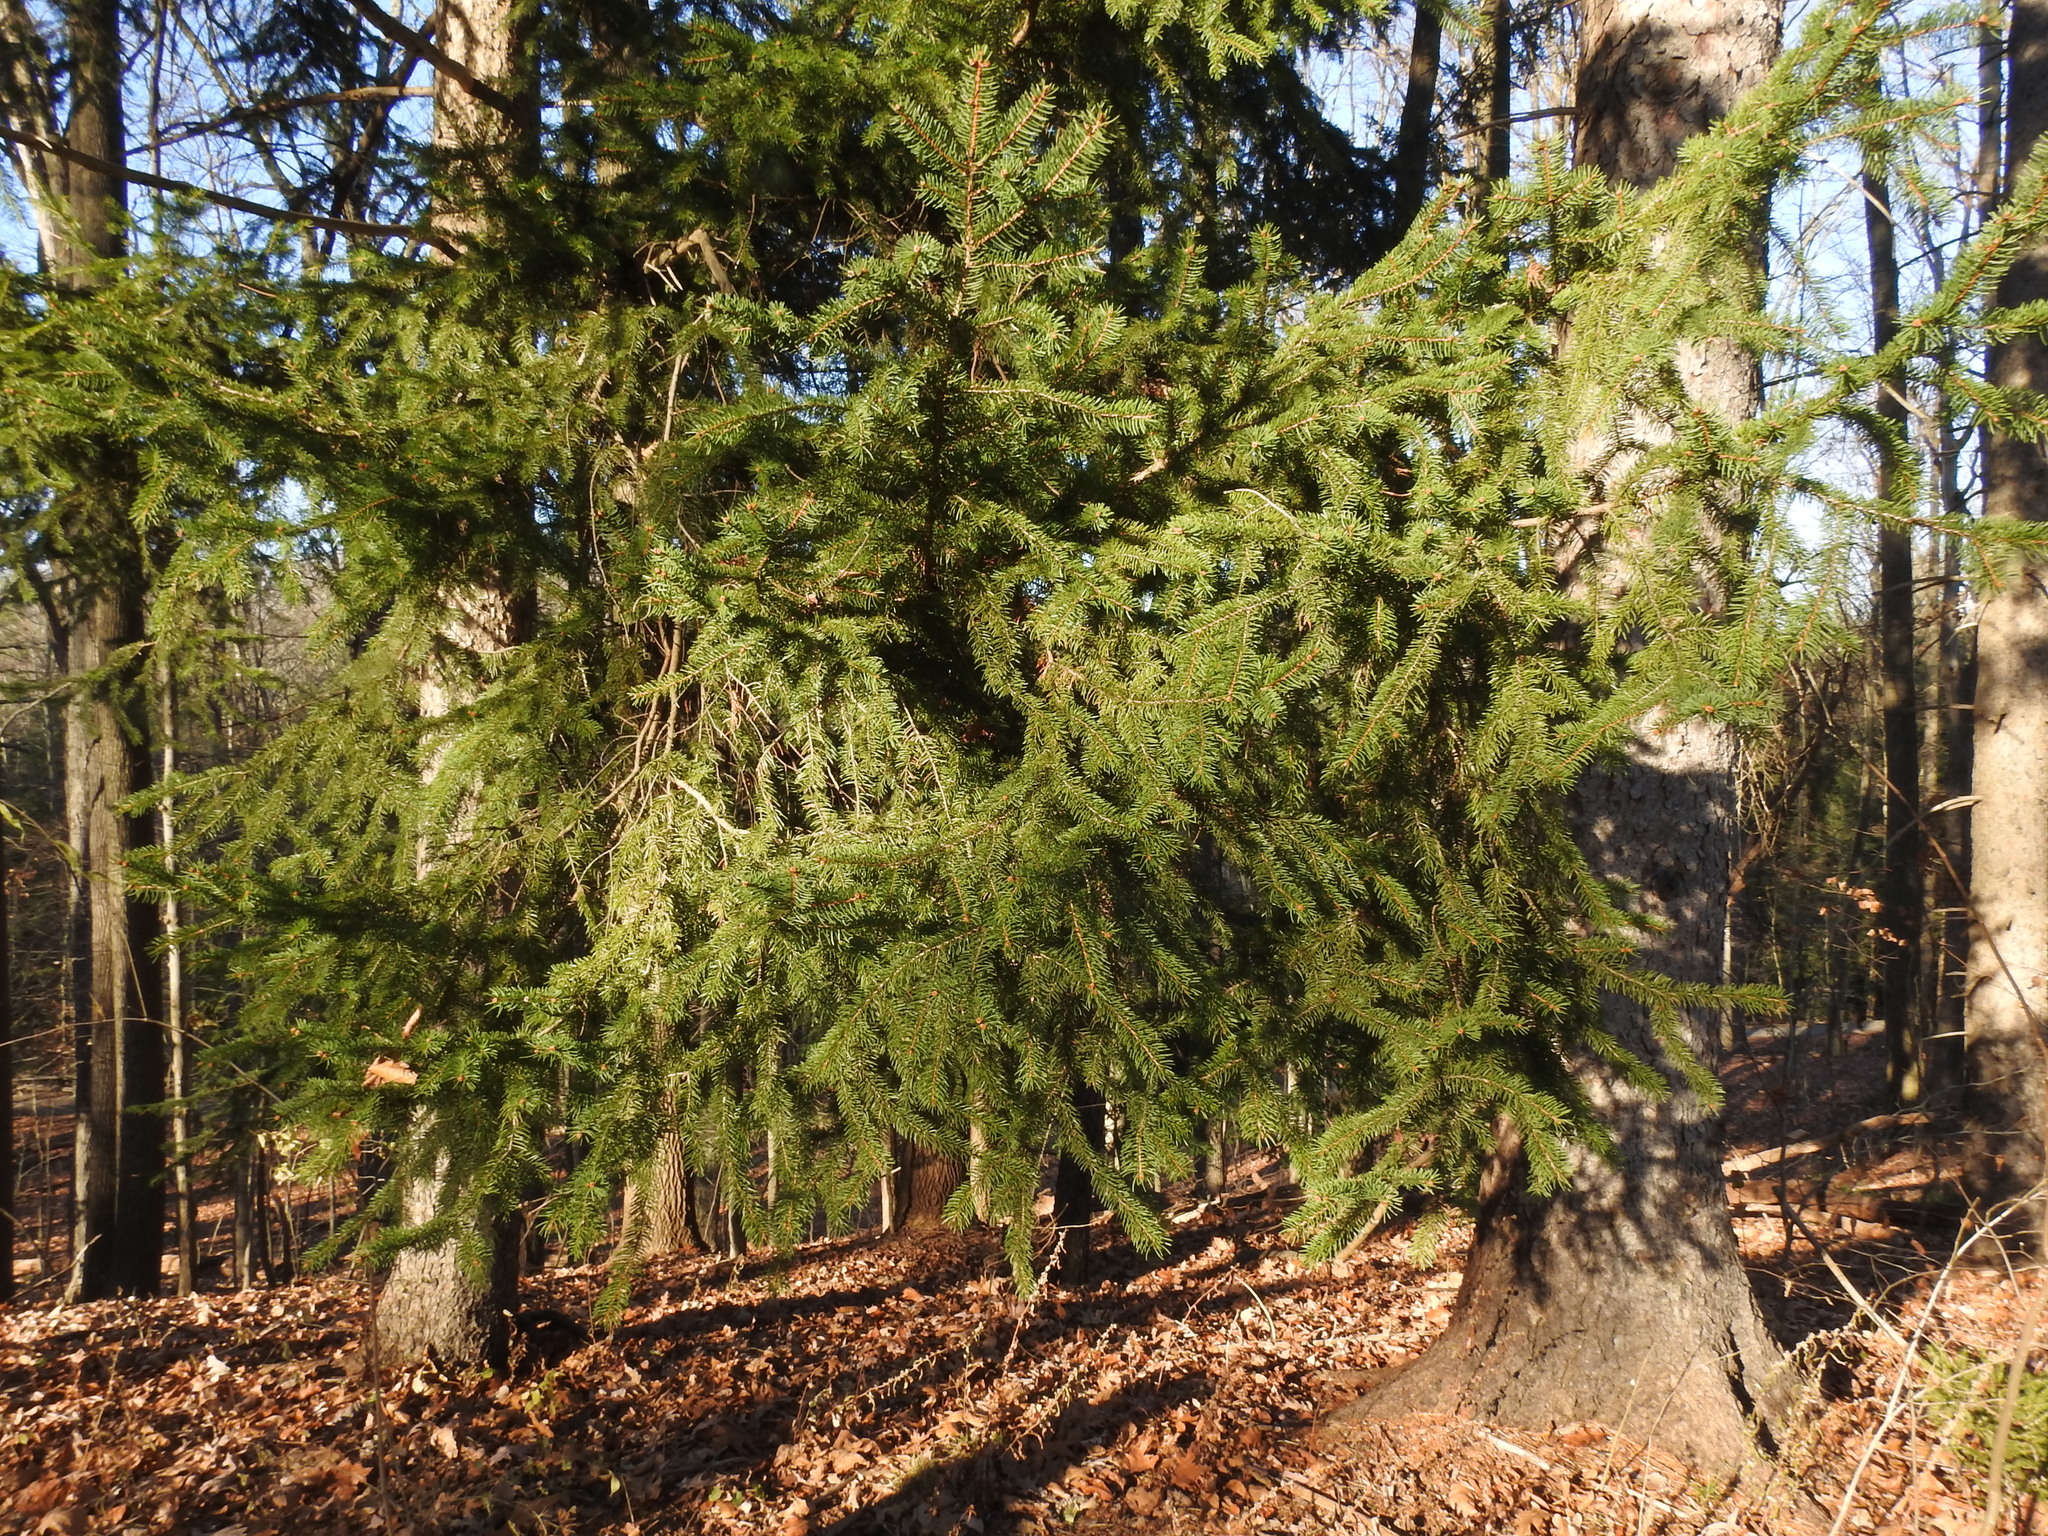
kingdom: Plantae
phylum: Tracheophyta
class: Pinopsida
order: Pinales
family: Pinaceae
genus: Picea
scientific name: Picea abies
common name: Norway spruce
